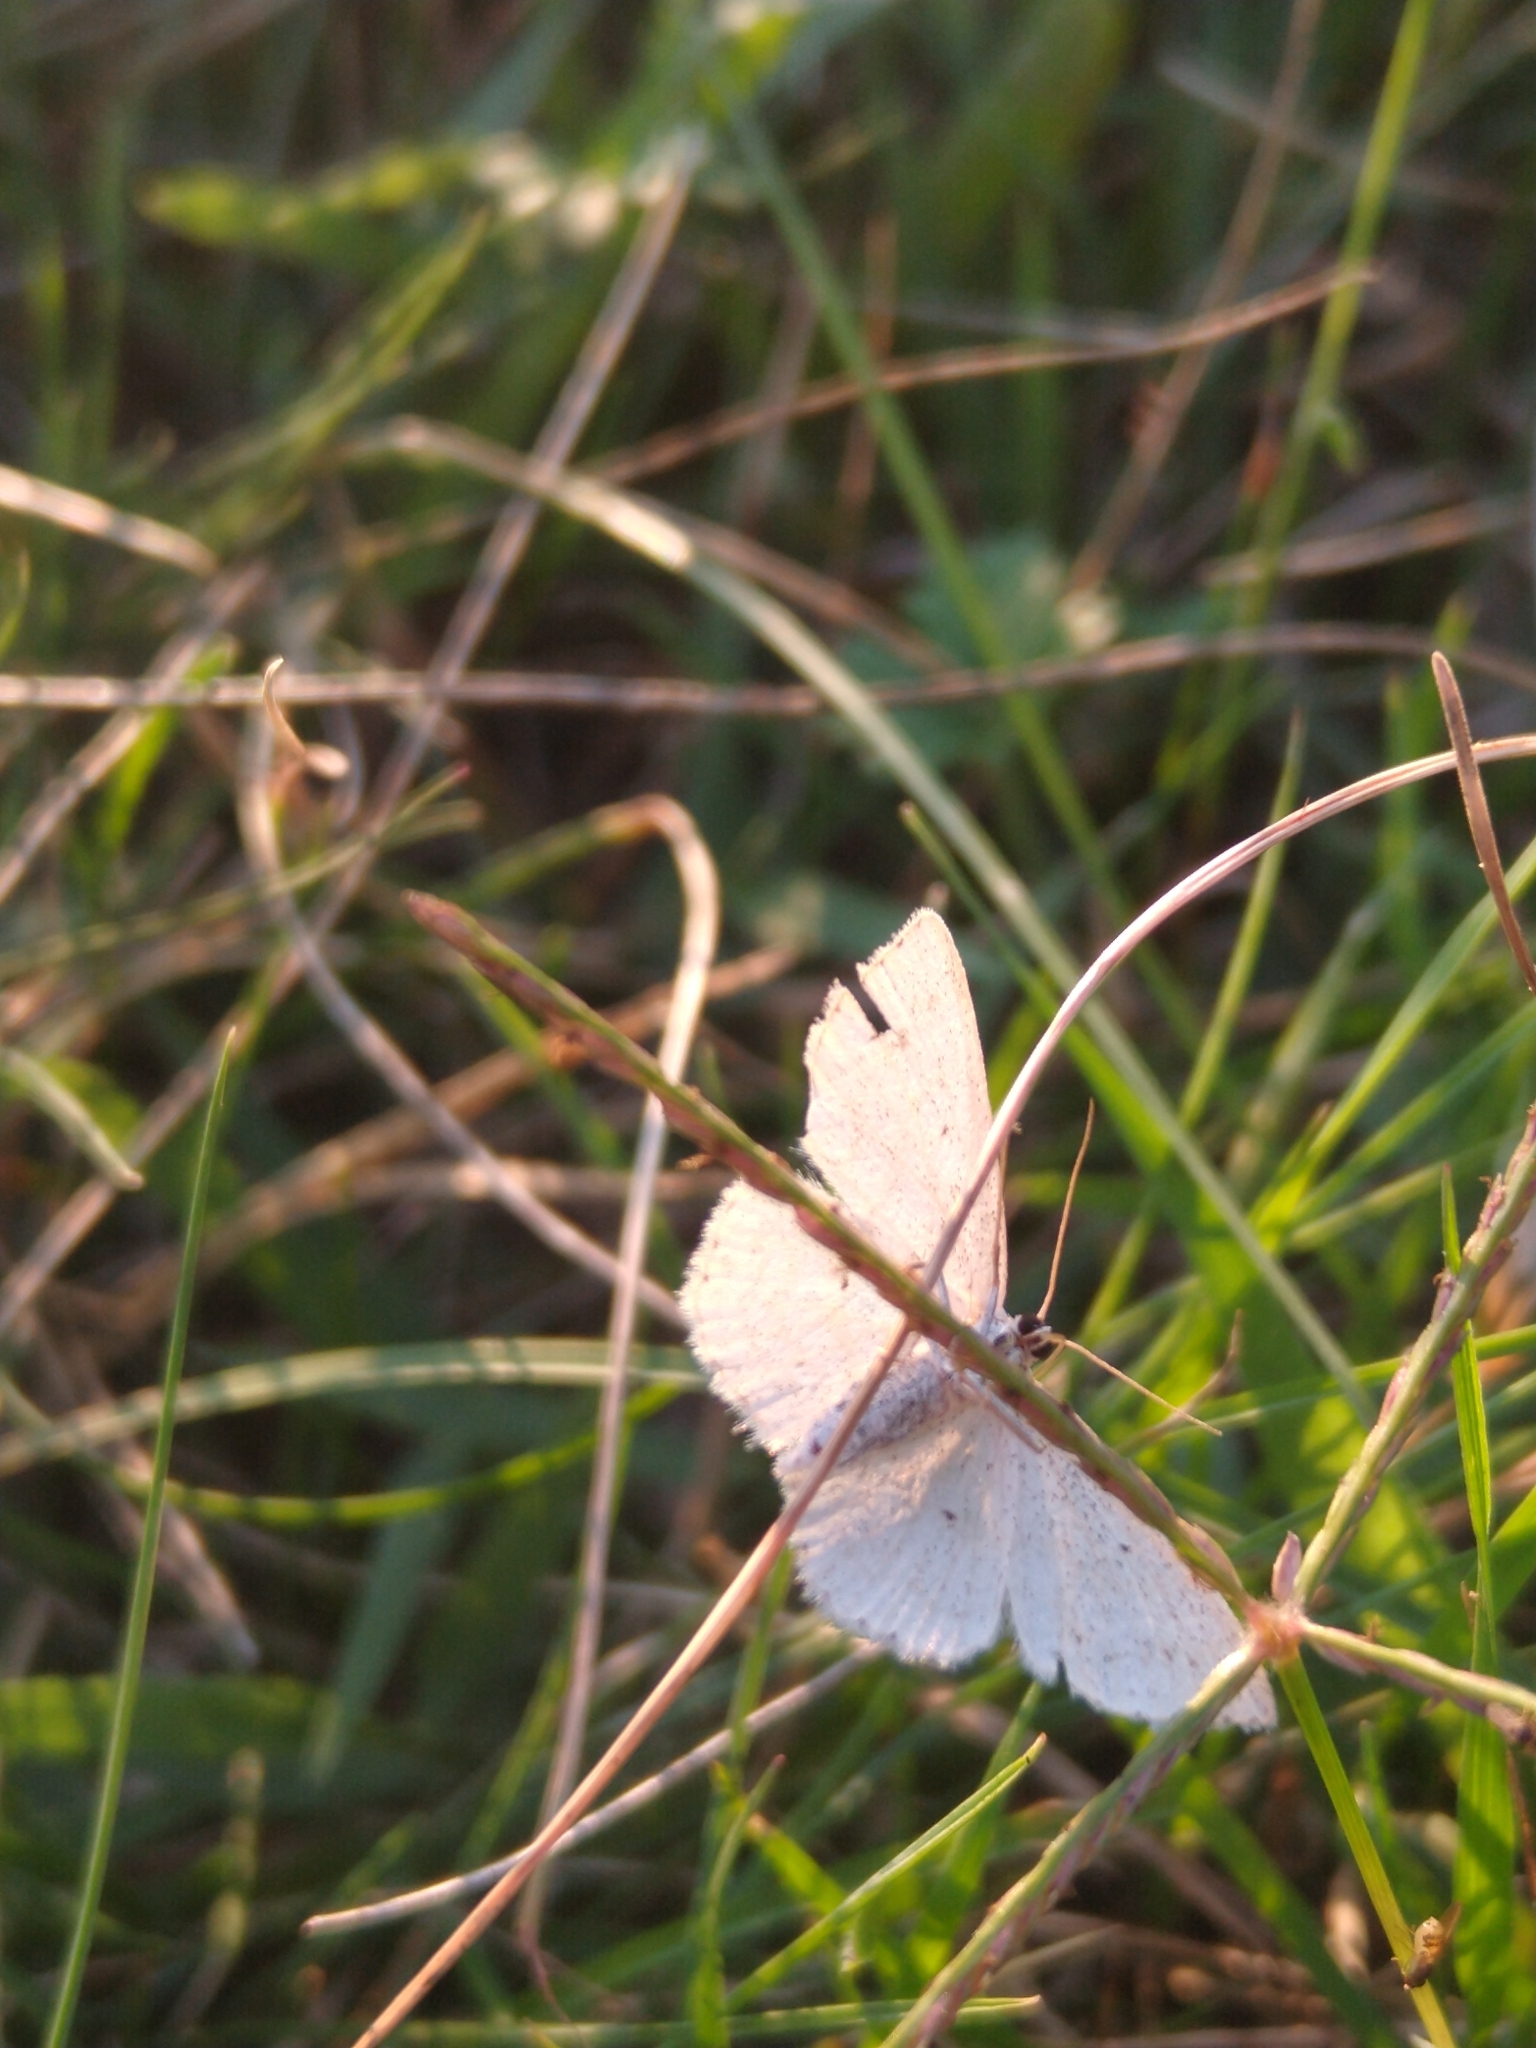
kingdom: Animalia
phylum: Arthropoda
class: Insecta
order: Lepidoptera
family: Geometridae
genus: Scopula
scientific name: Scopula immutata
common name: Lesser cream wave
